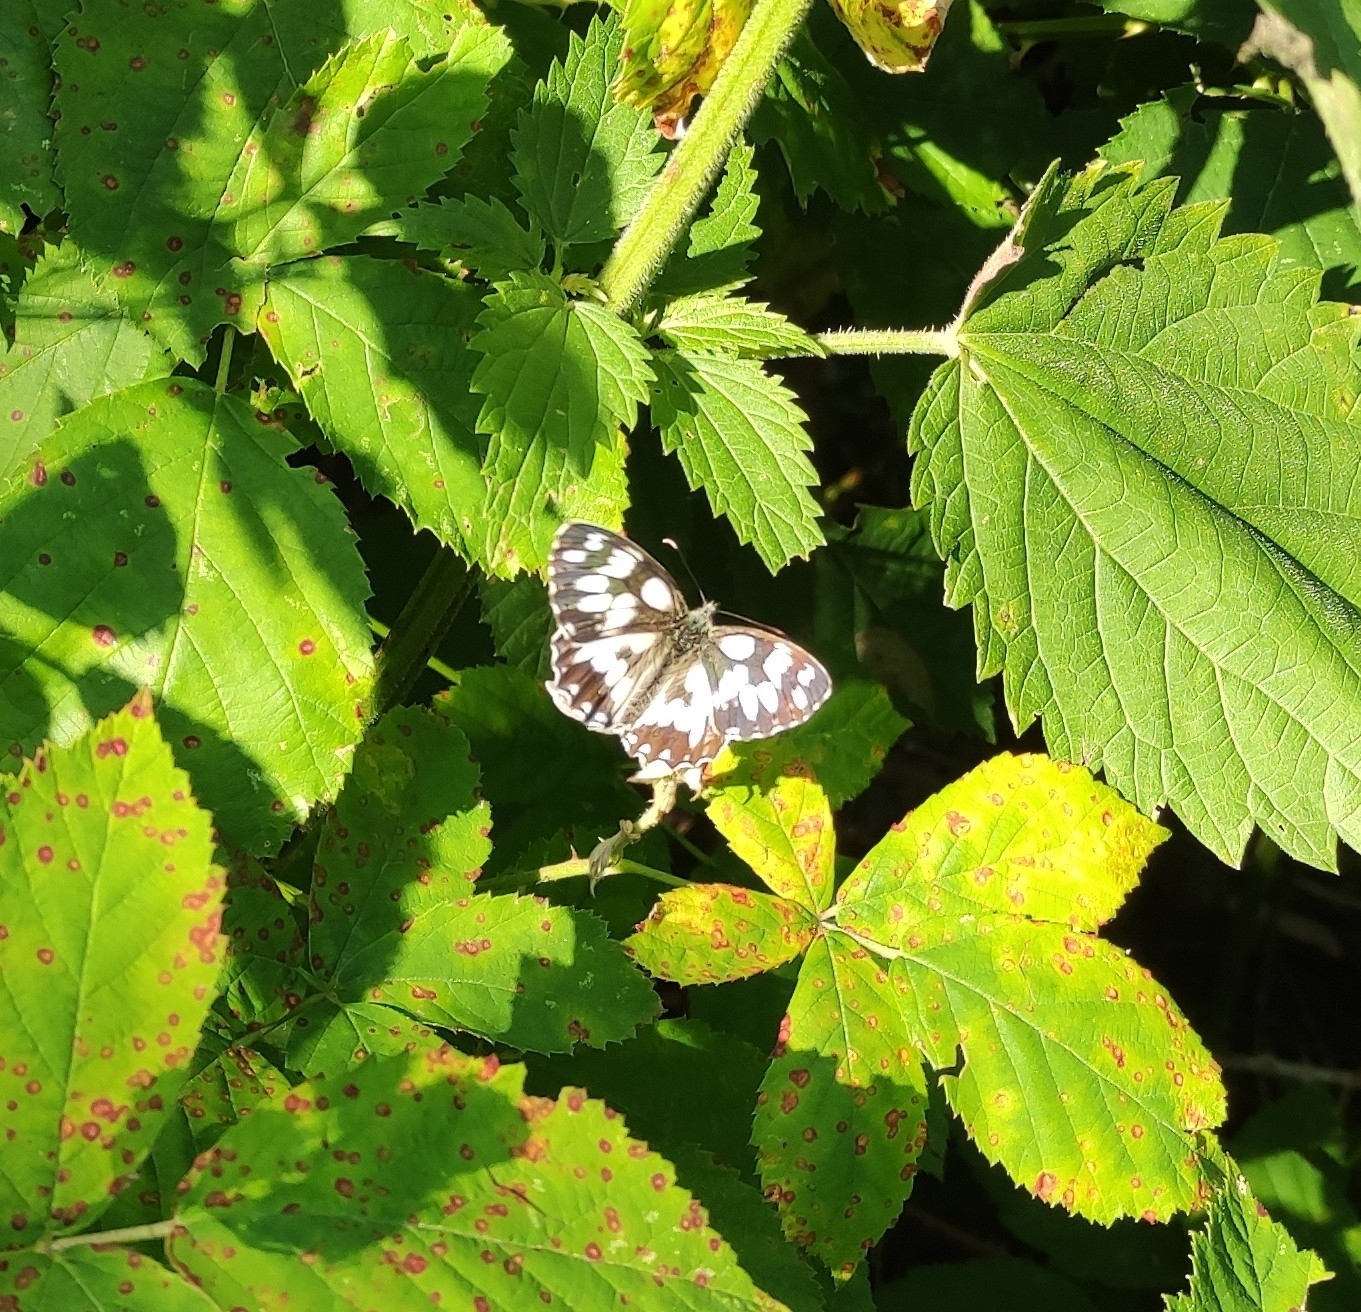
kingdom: Animalia
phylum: Arthropoda
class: Insecta
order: Lepidoptera
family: Nymphalidae
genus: Melanargia
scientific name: Melanargia galathea
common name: Marbled white
